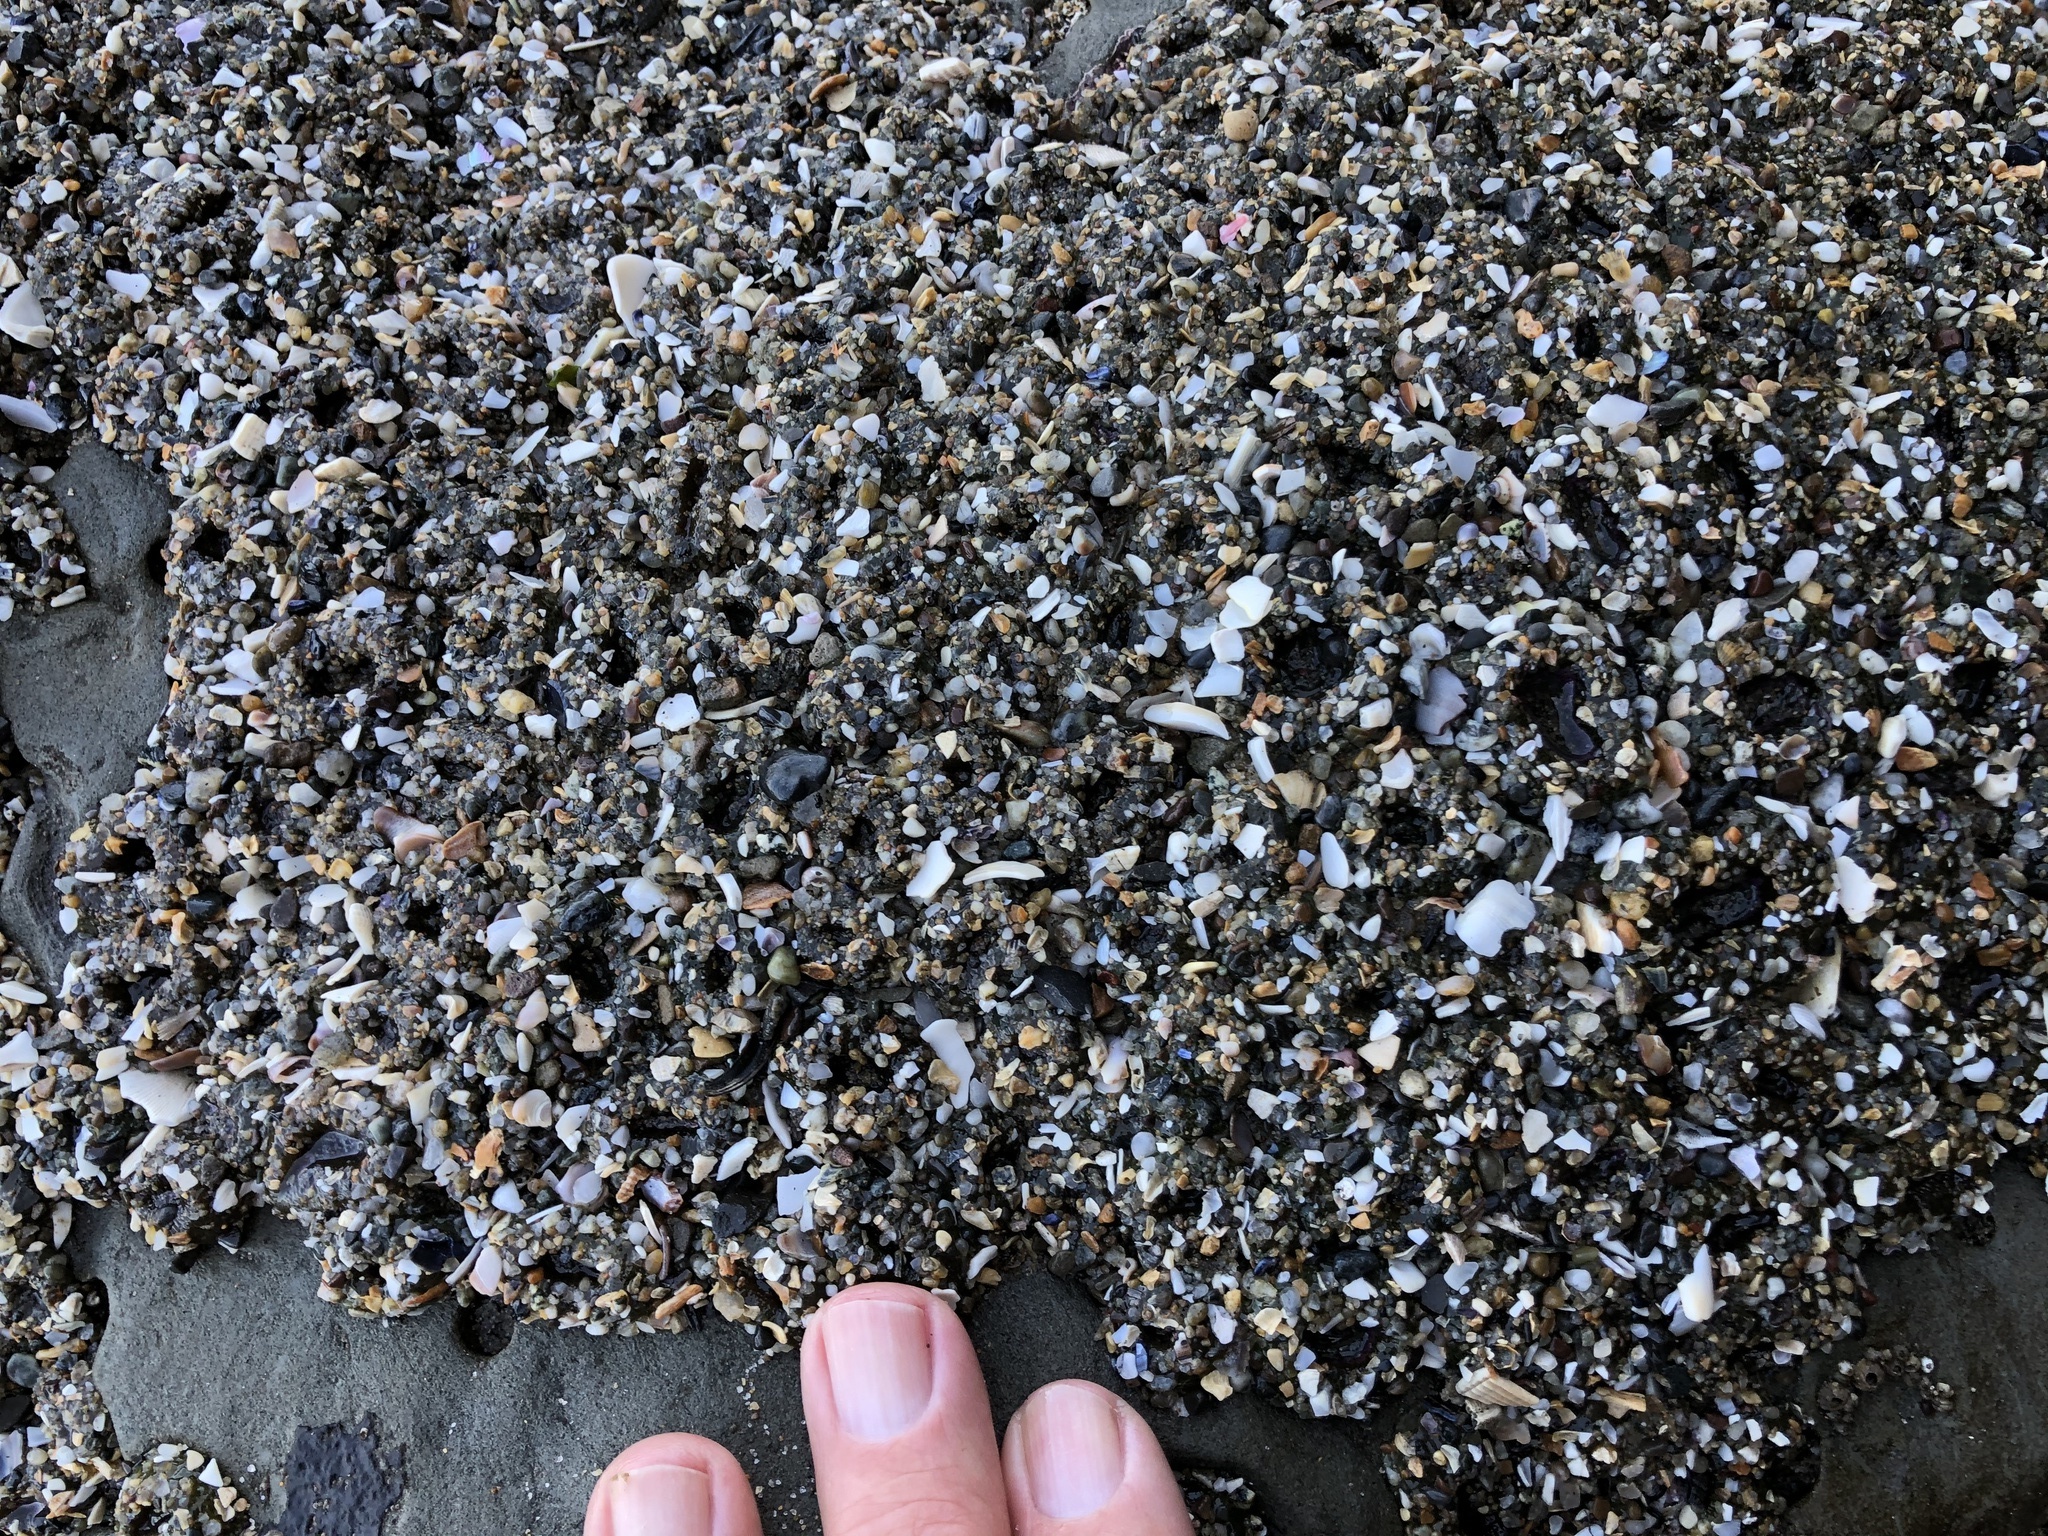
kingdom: Animalia
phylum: Cnidaria
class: Anthozoa
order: Actiniaria
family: Actiniidae
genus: Anthopleura
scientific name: Anthopleura elegantissima
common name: Clonal anemone
